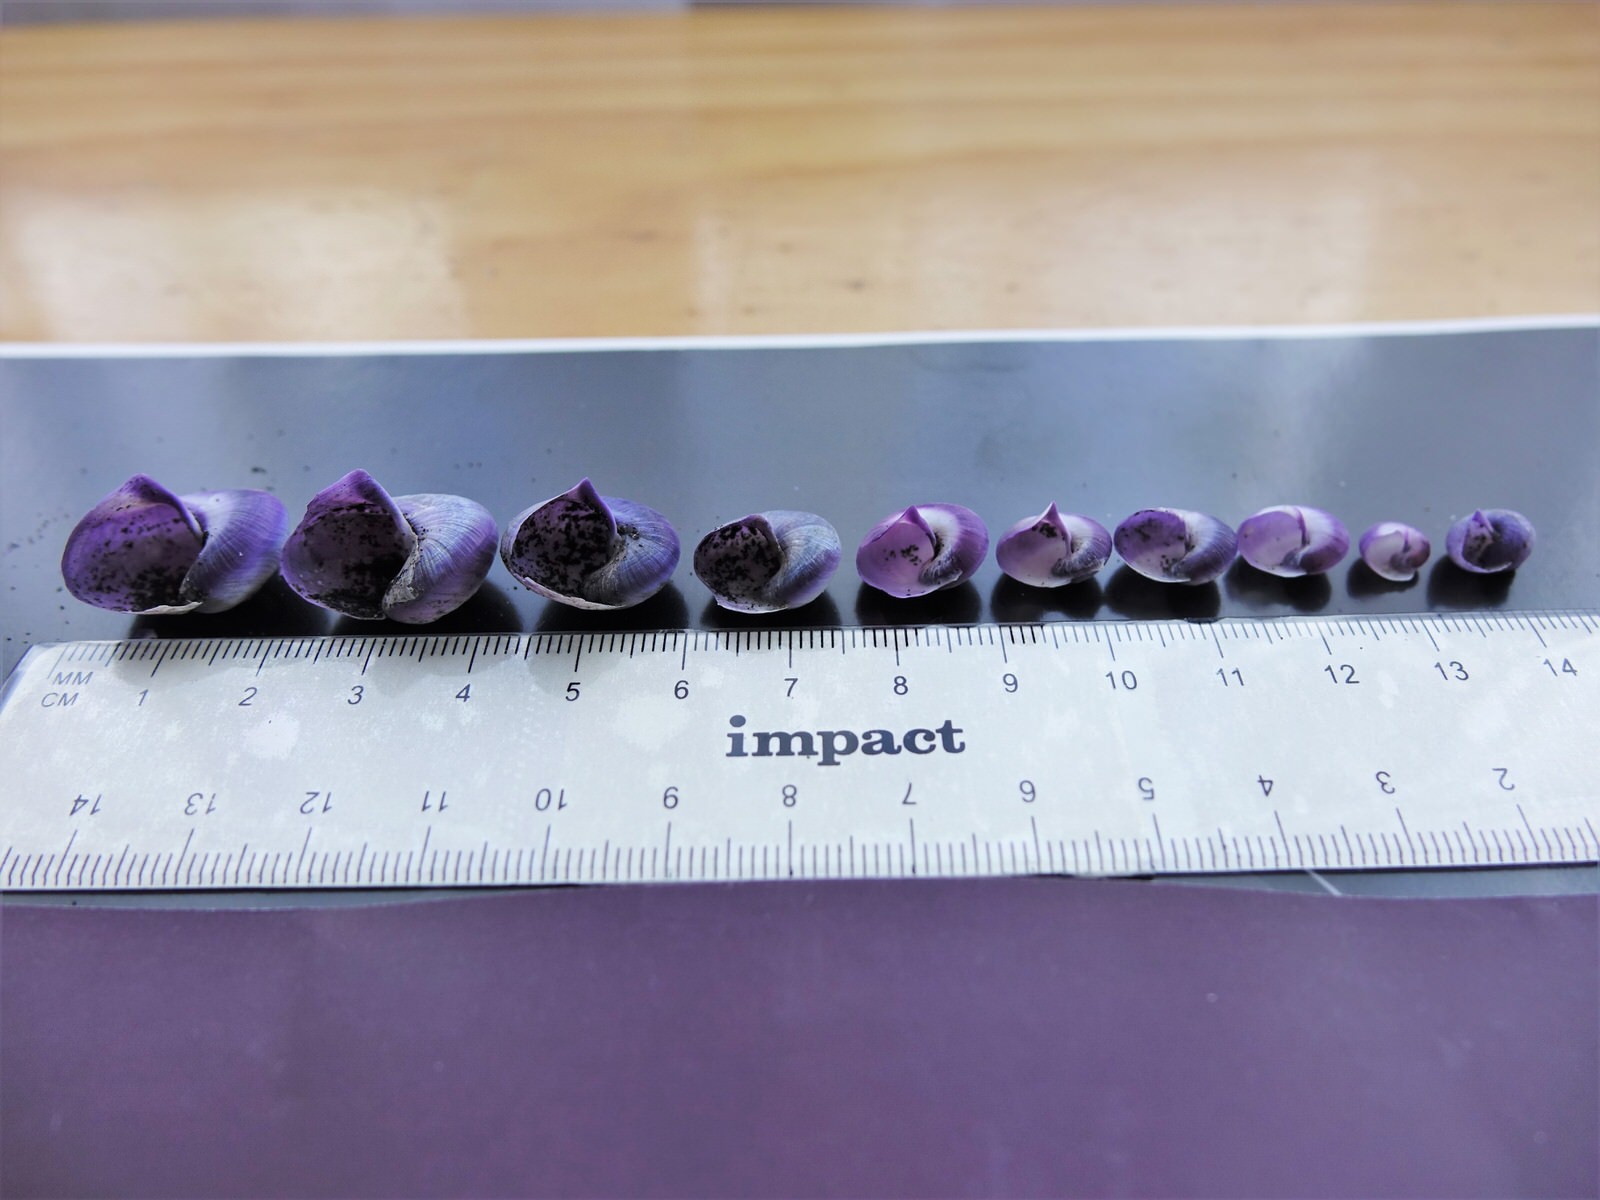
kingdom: Animalia
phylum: Mollusca
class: Gastropoda
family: Epitoniidae
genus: Janthina
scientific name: Janthina janthina
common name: Common janthina
